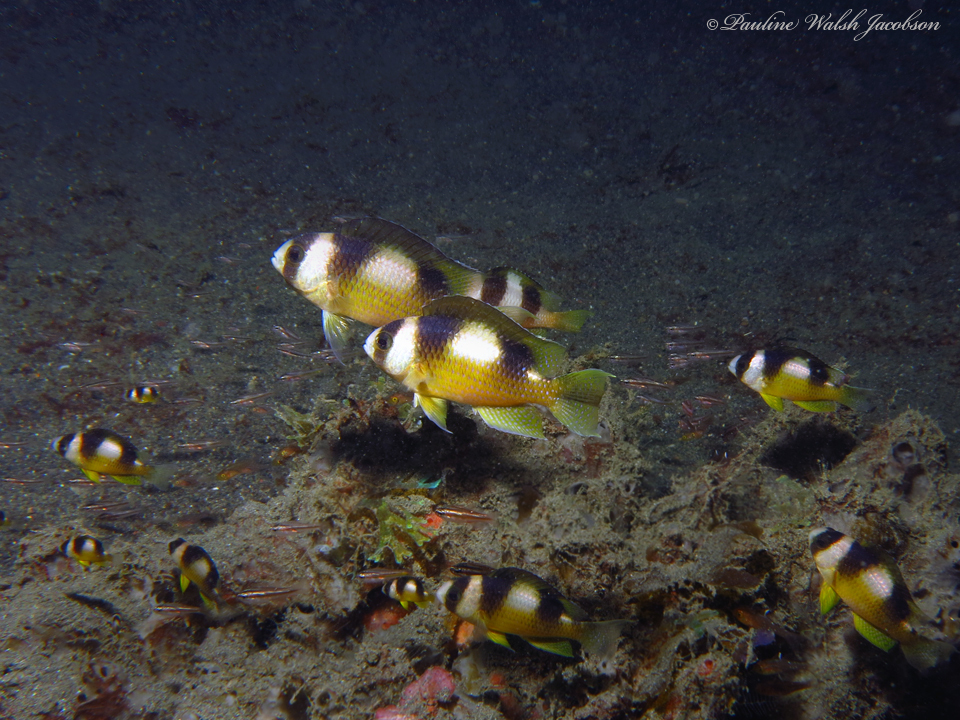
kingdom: Animalia
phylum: Chordata
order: Perciformes
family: Pomacentridae
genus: Amblypomacentrus
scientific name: Amblypomacentrus breviceps
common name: Black-banded demoiselle
